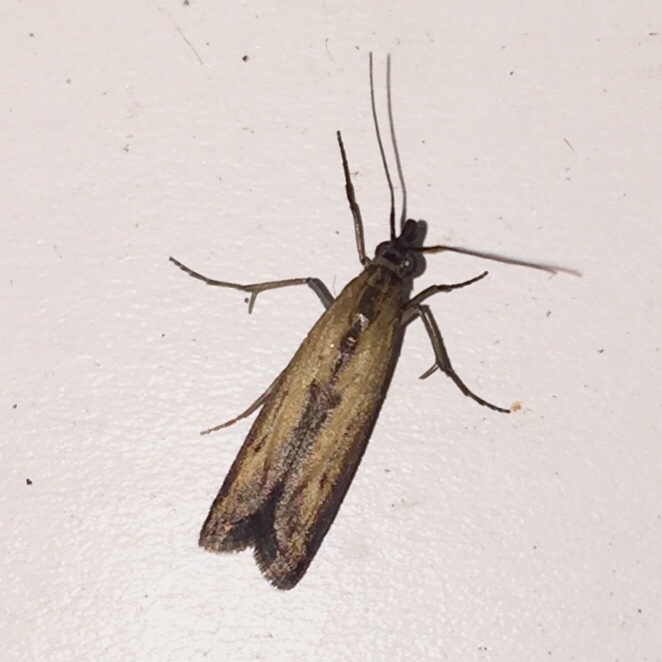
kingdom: Animalia
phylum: Arthropoda
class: Insecta
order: Lepidoptera
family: Pyralidae
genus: Elasmopalpus
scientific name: Elasmopalpus lignosella
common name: Lesser cornstalk borer
